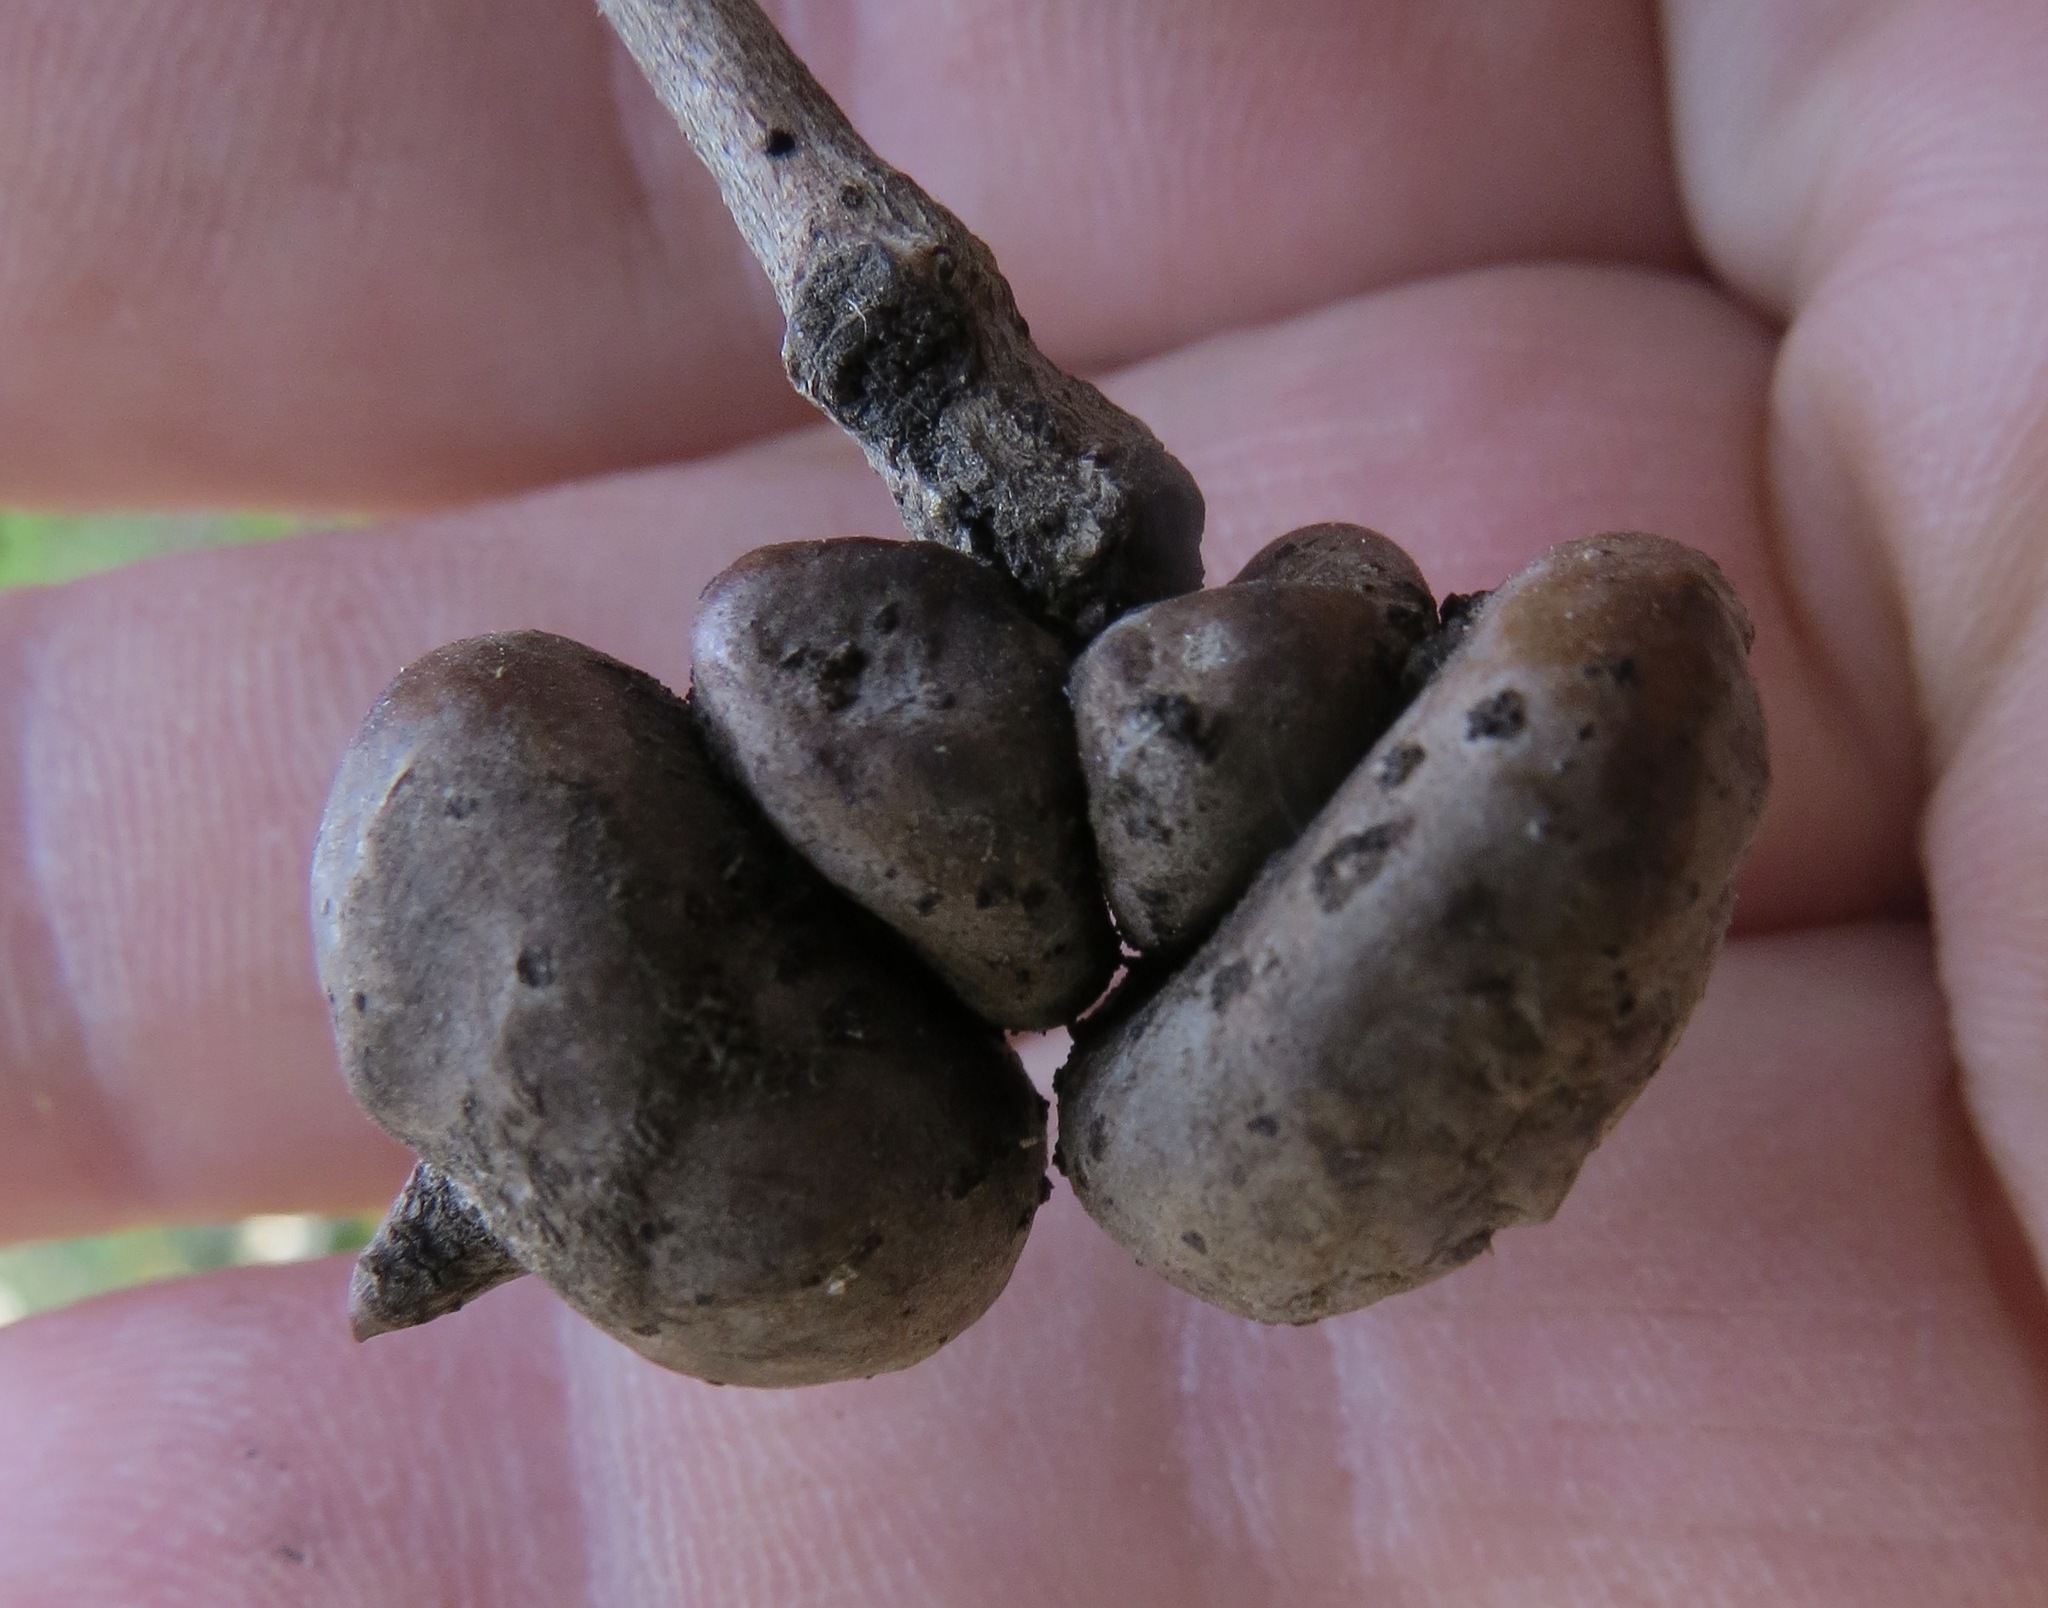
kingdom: Animalia
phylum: Arthropoda
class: Insecta
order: Hymenoptera
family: Cynipidae
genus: Heteroecus
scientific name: Heteroecus
